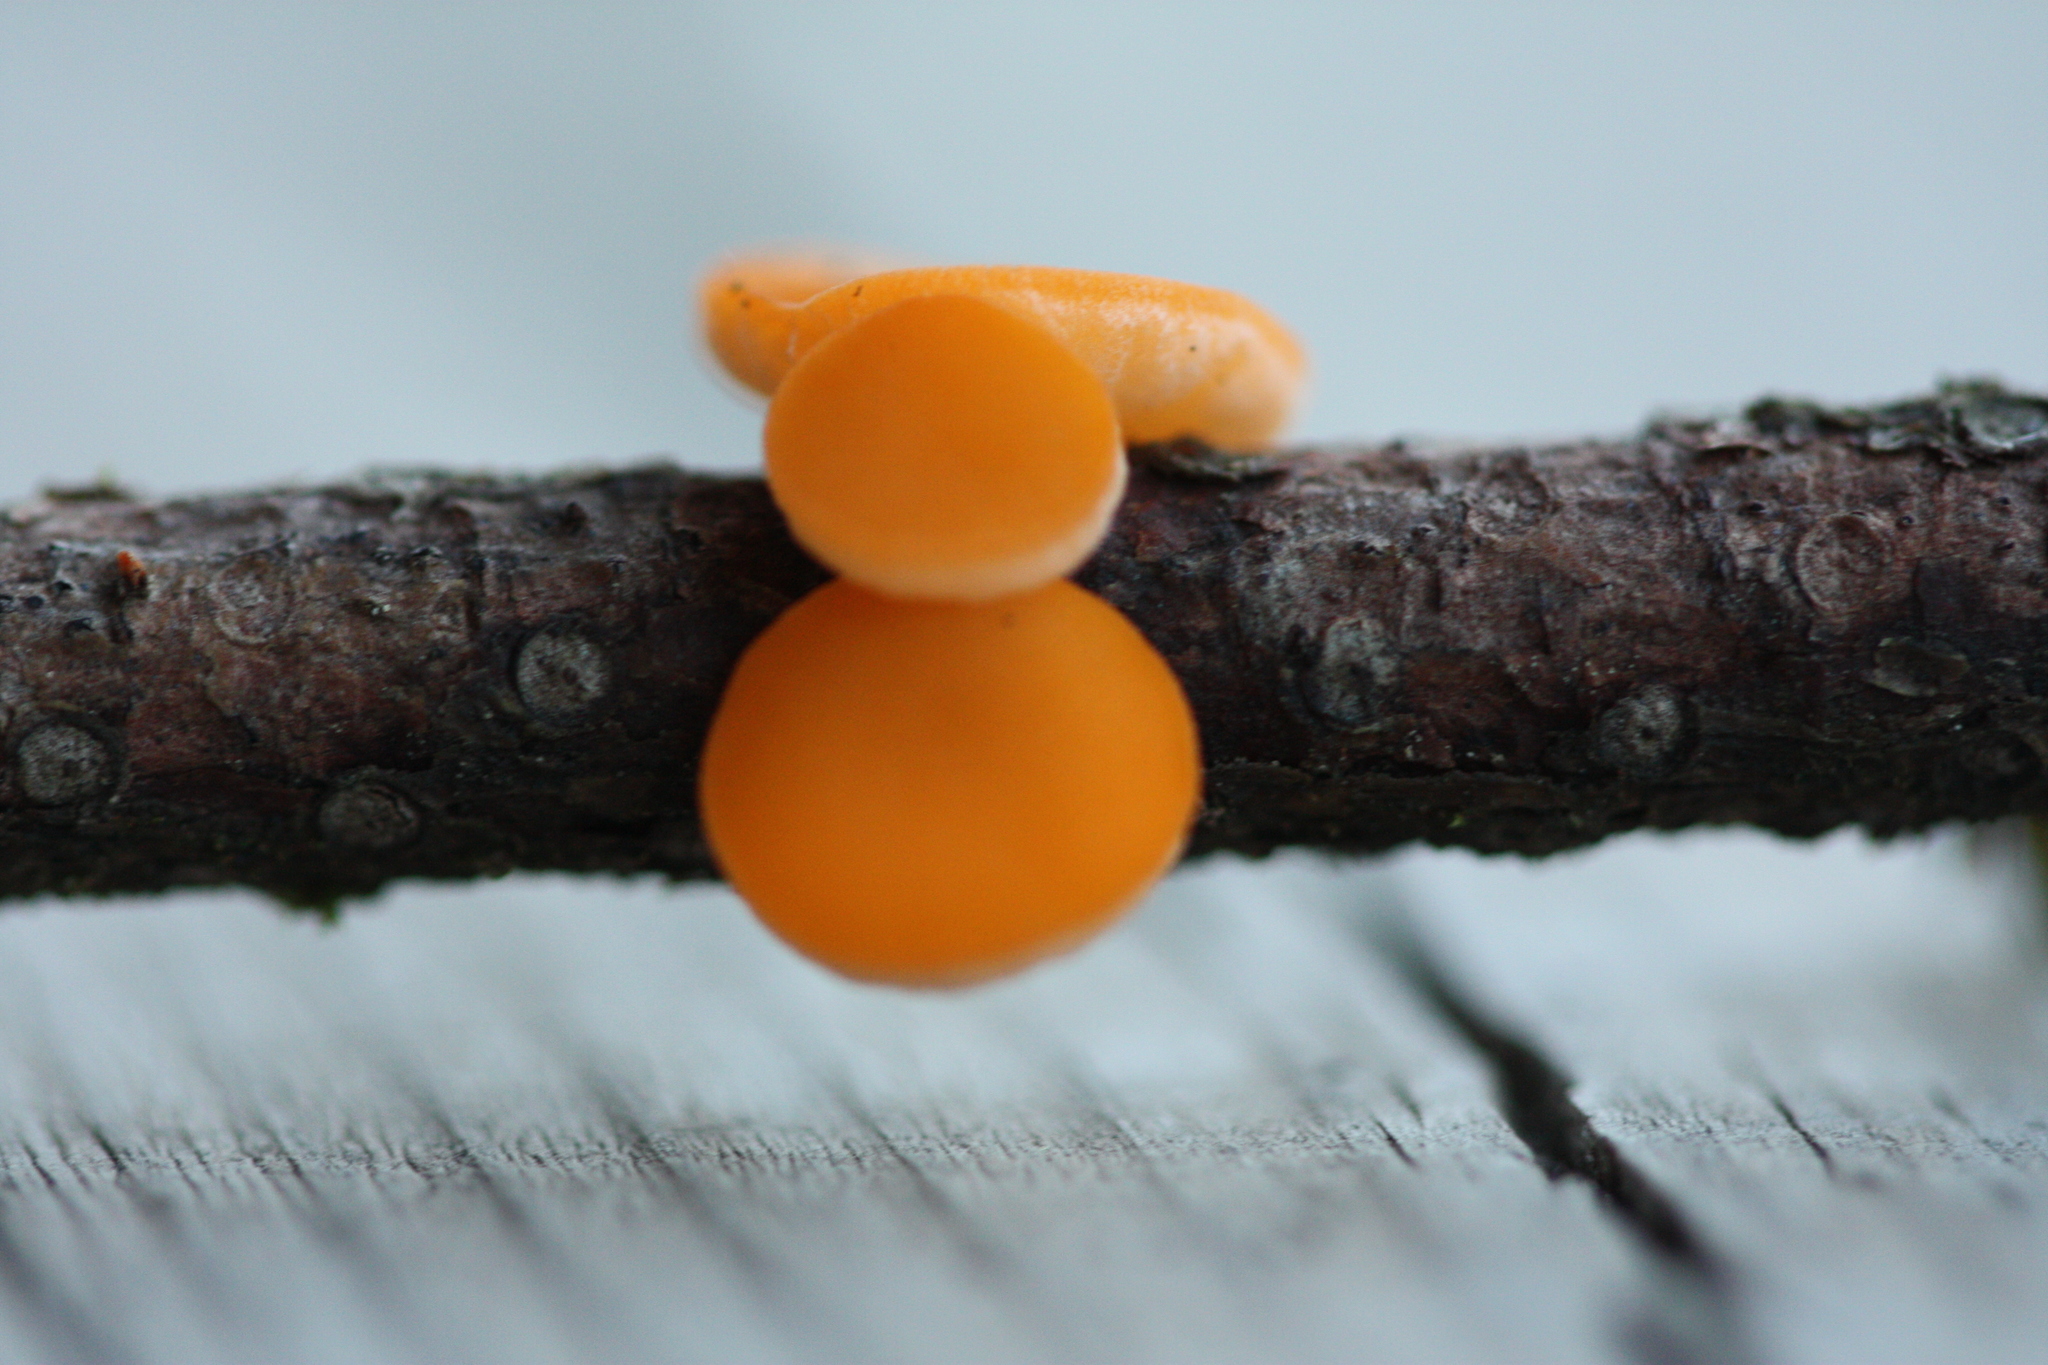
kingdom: Fungi
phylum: Ascomycota
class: Pezizomycetes
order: Pezizales
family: Sarcoscyphaceae
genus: Pithya
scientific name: Pithya vulgaris
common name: Fir disco
